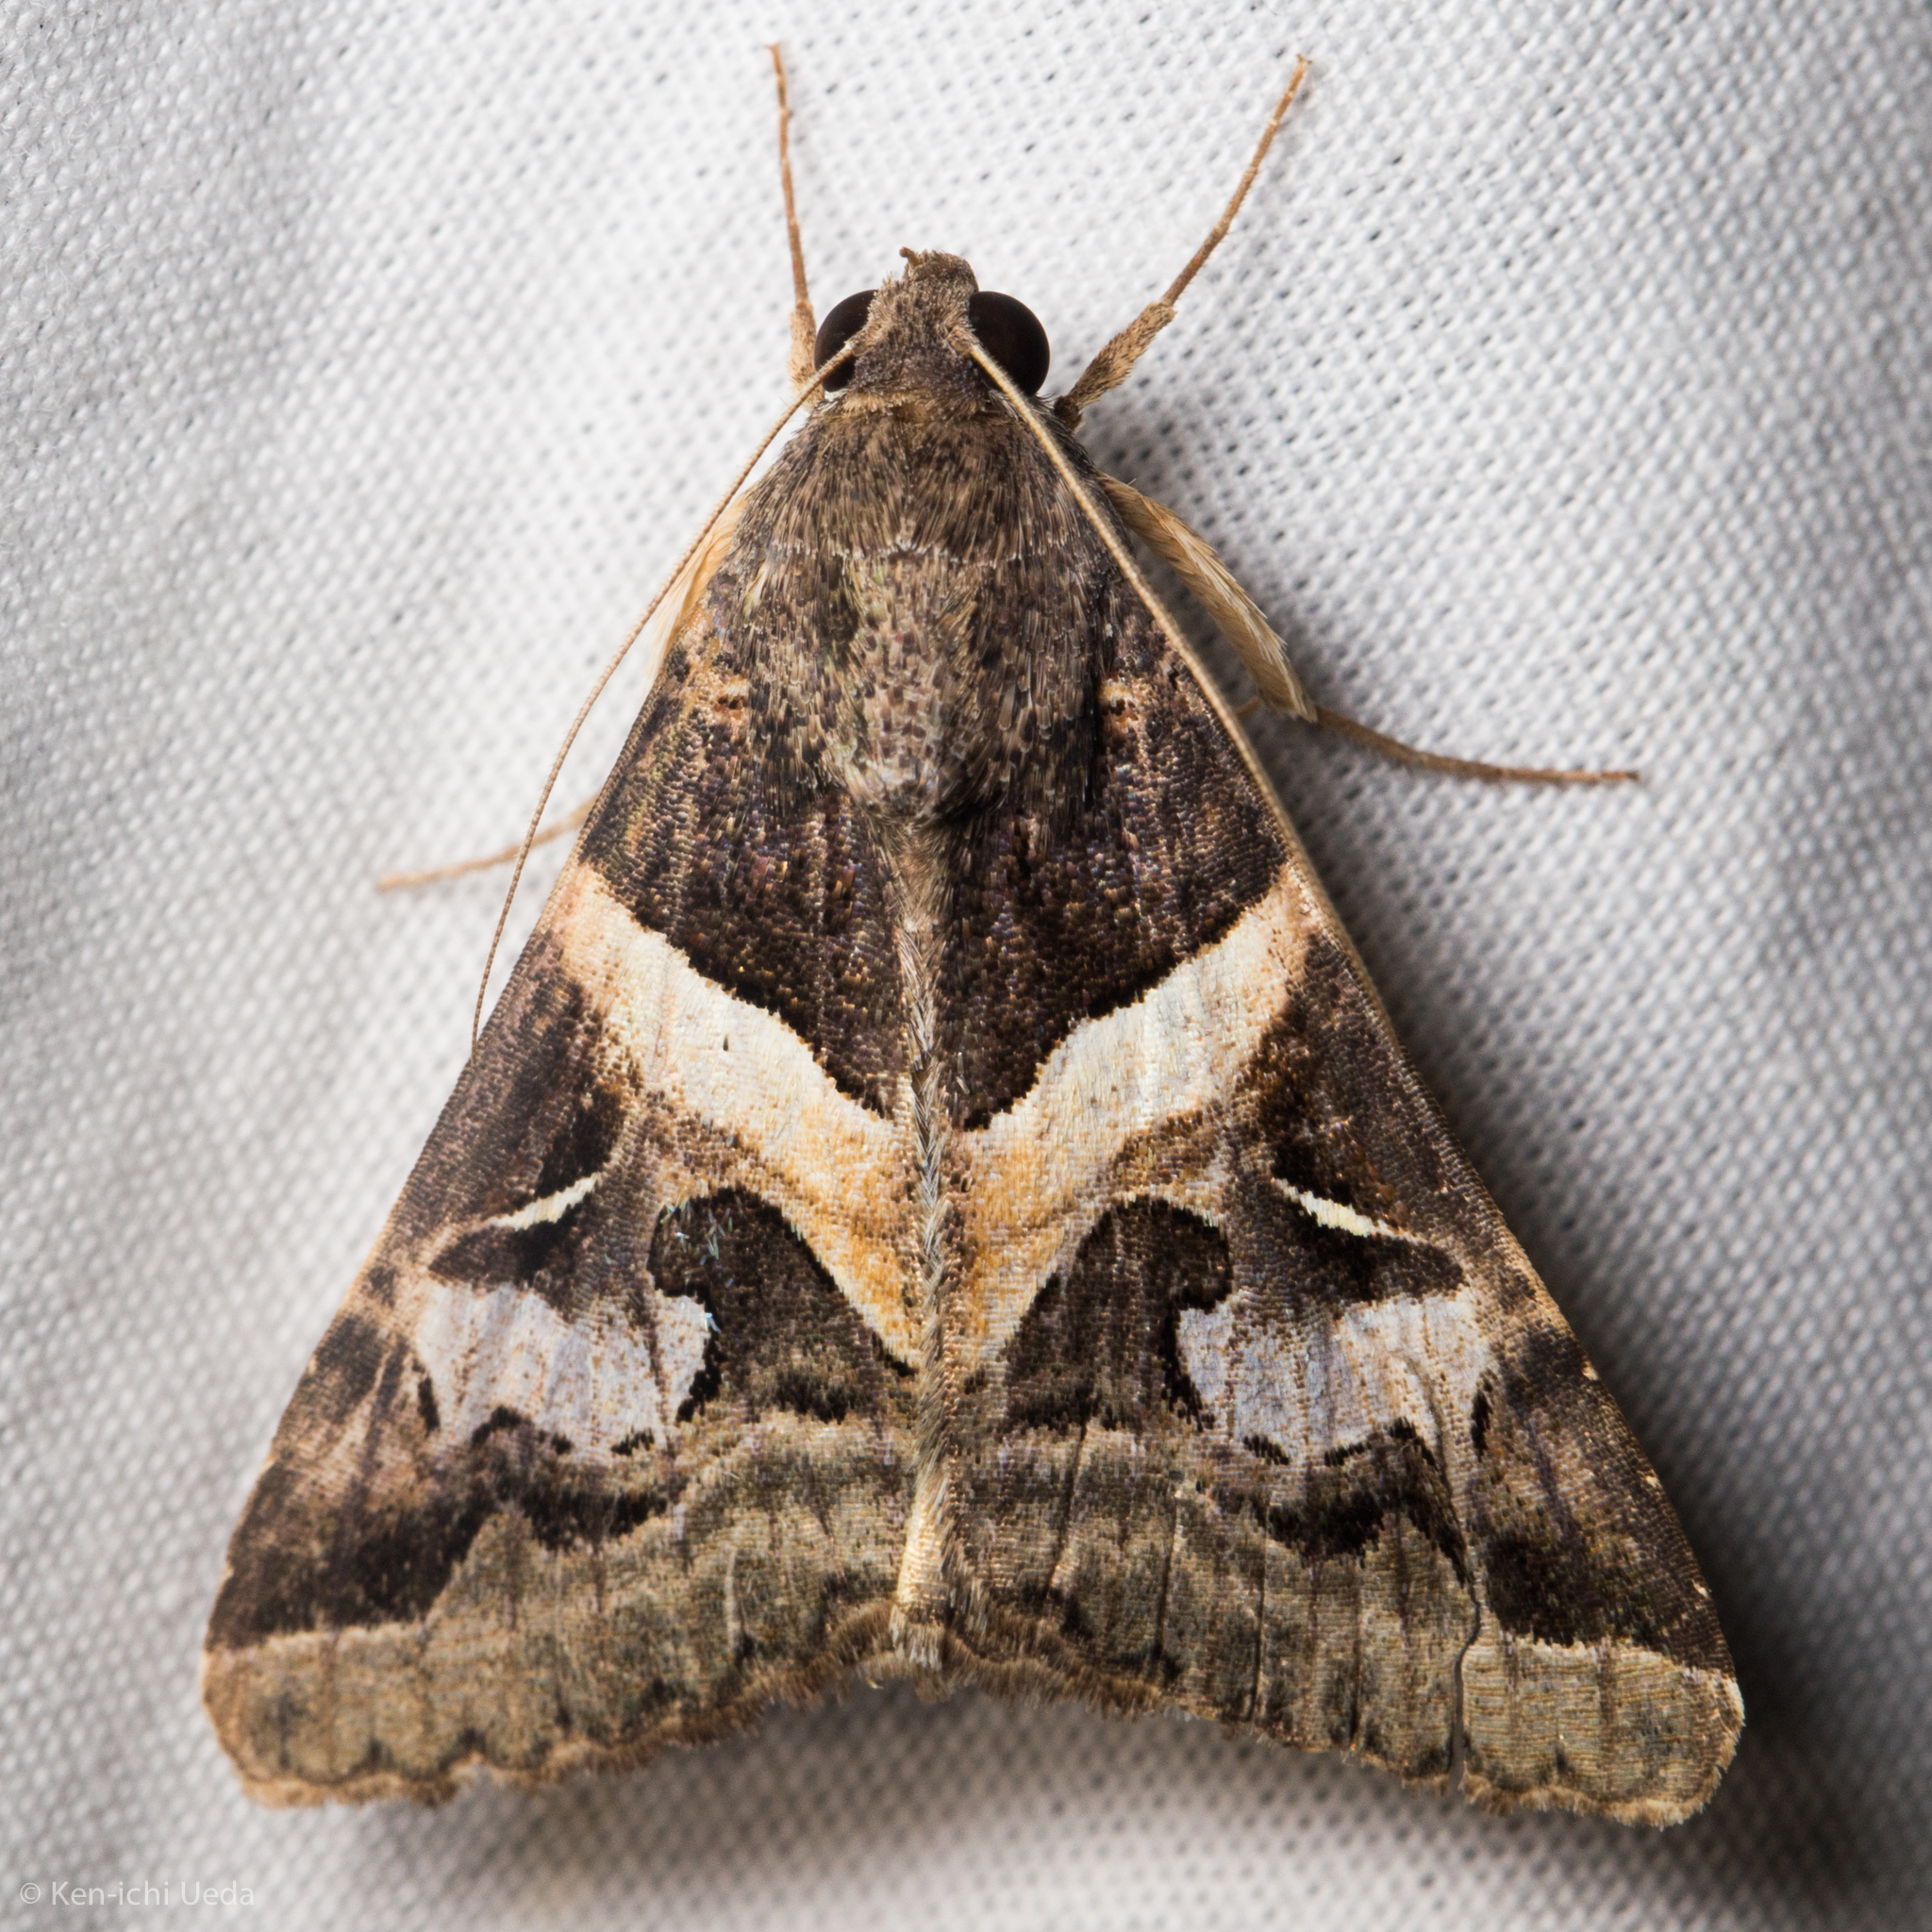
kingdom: Animalia
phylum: Arthropoda
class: Insecta
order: Lepidoptera
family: Erebidae
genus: Melipotis
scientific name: Melipotis indomita
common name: Moth
